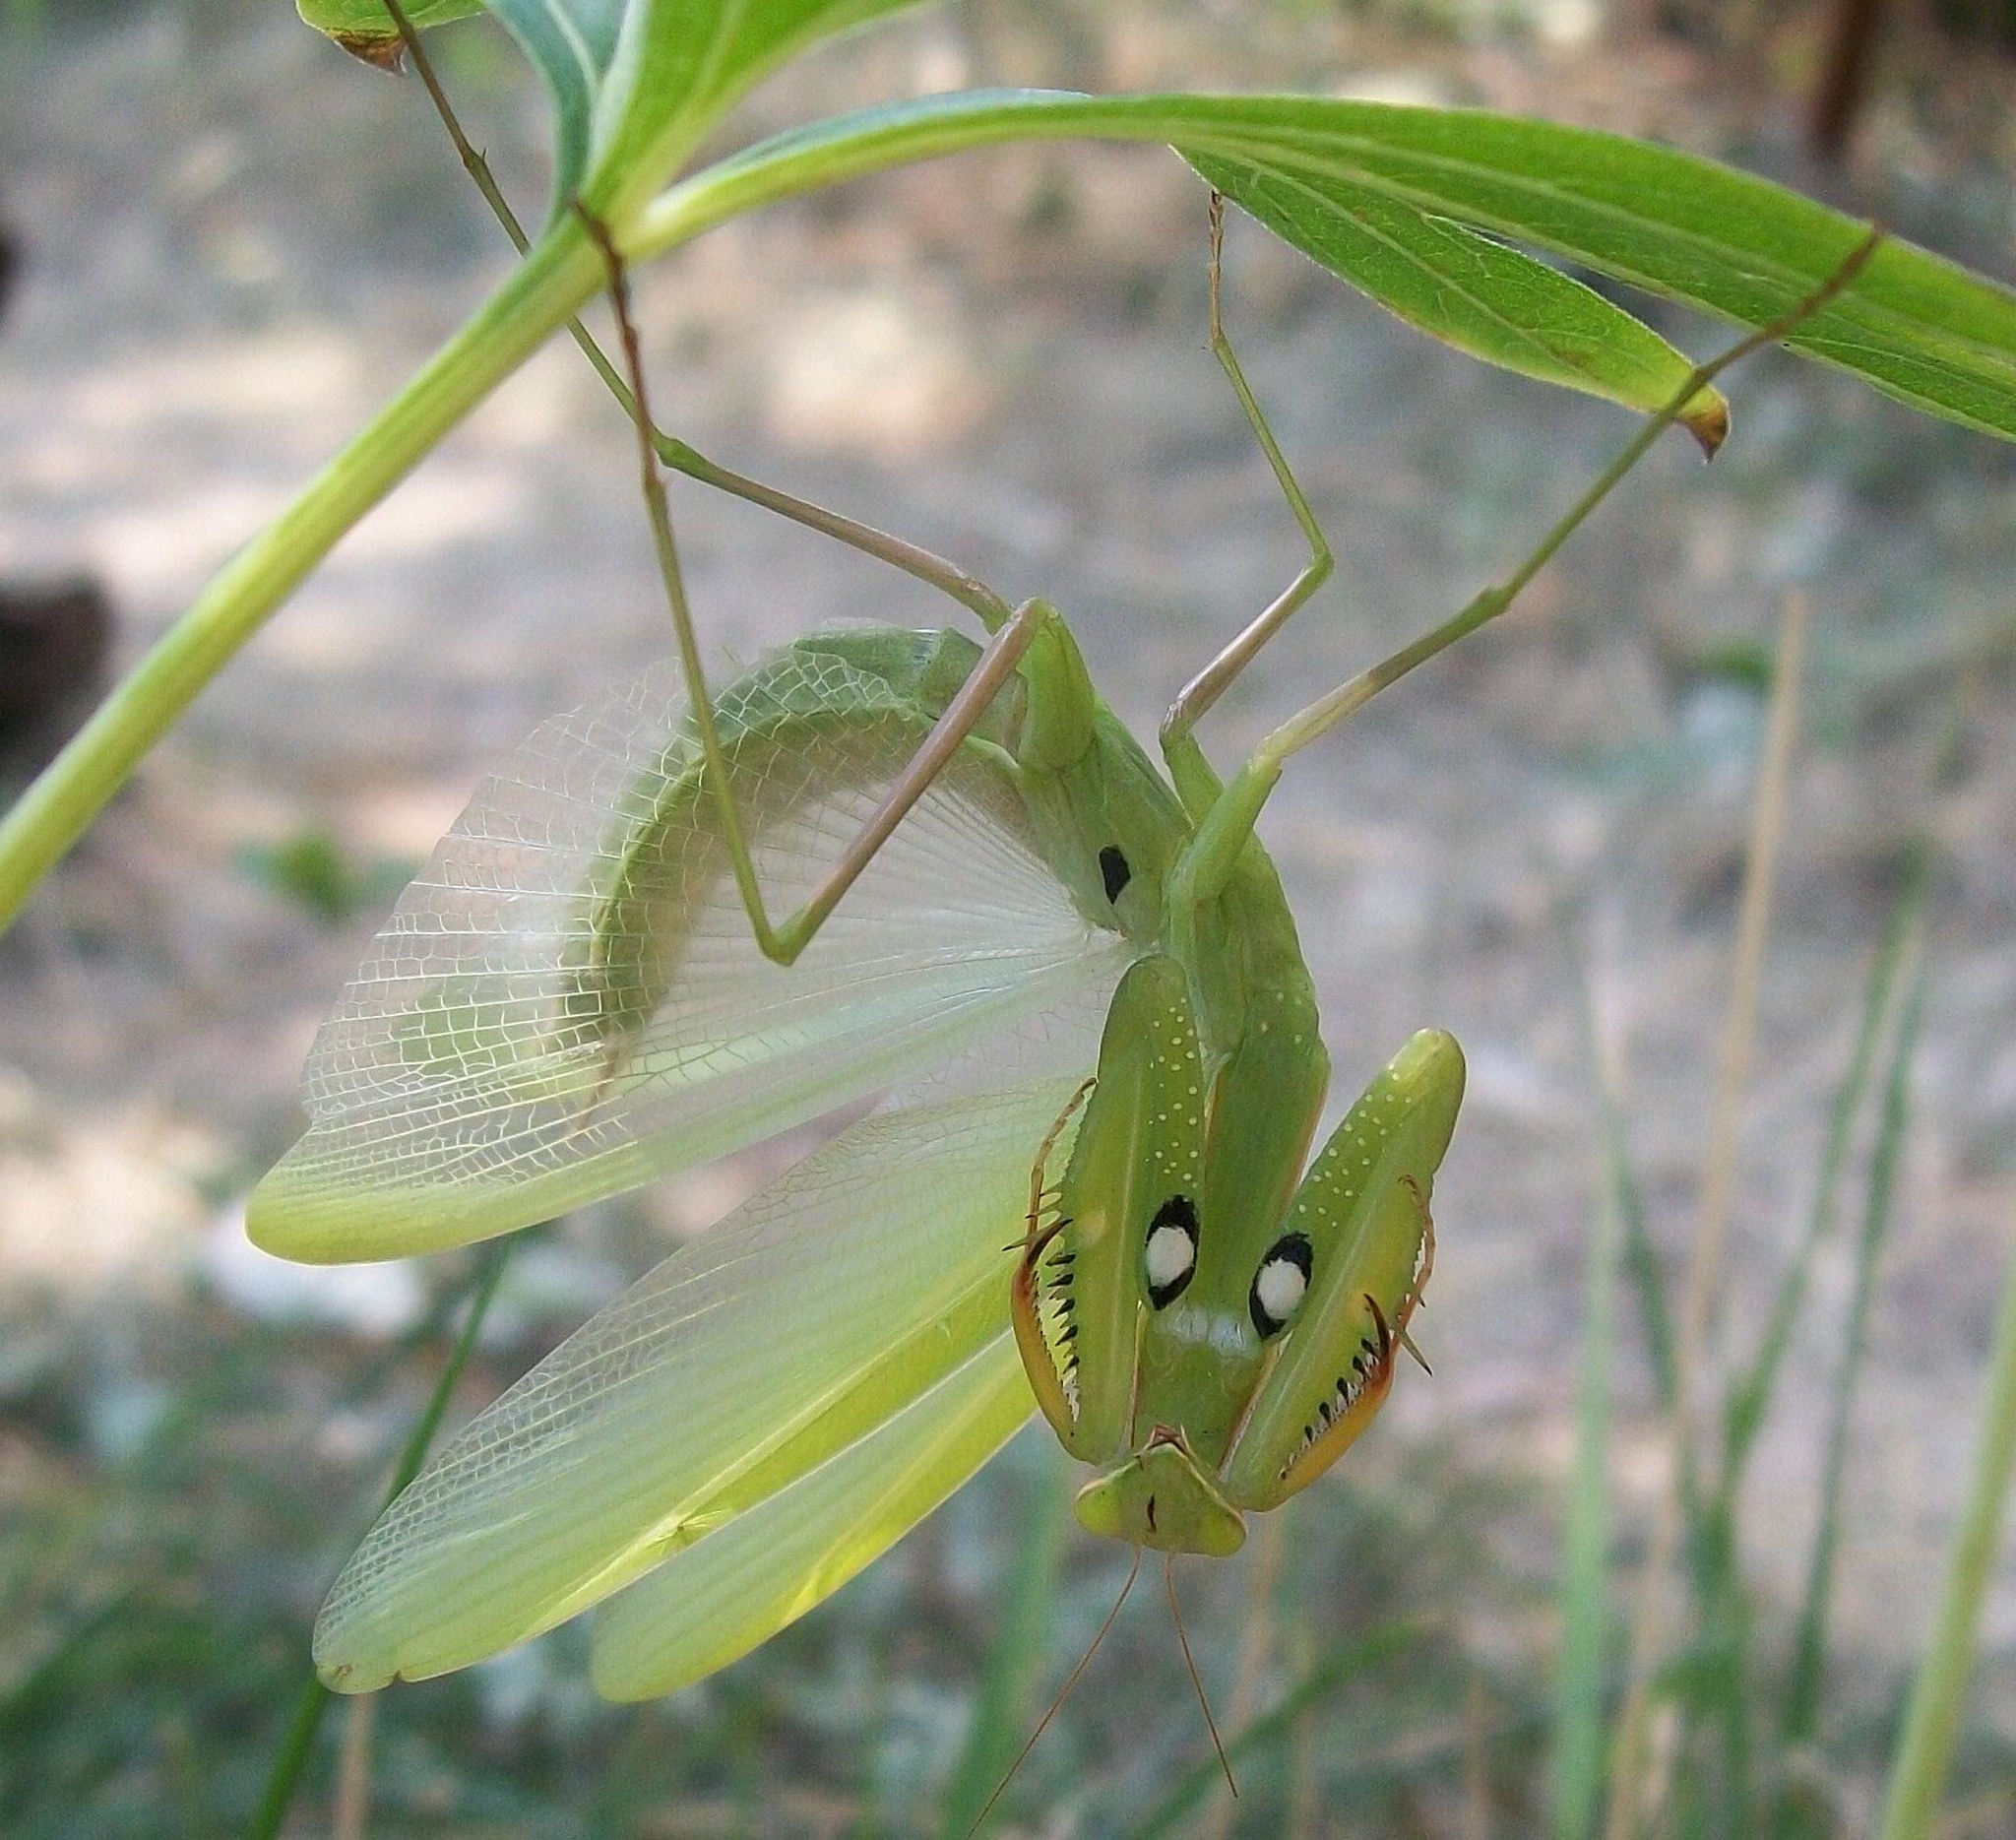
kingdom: Animalia
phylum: Arthropoda
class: Insecta
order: Mantodea
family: Mantidae
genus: Mantis
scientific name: Mantis religiosa
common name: Praying mantis
